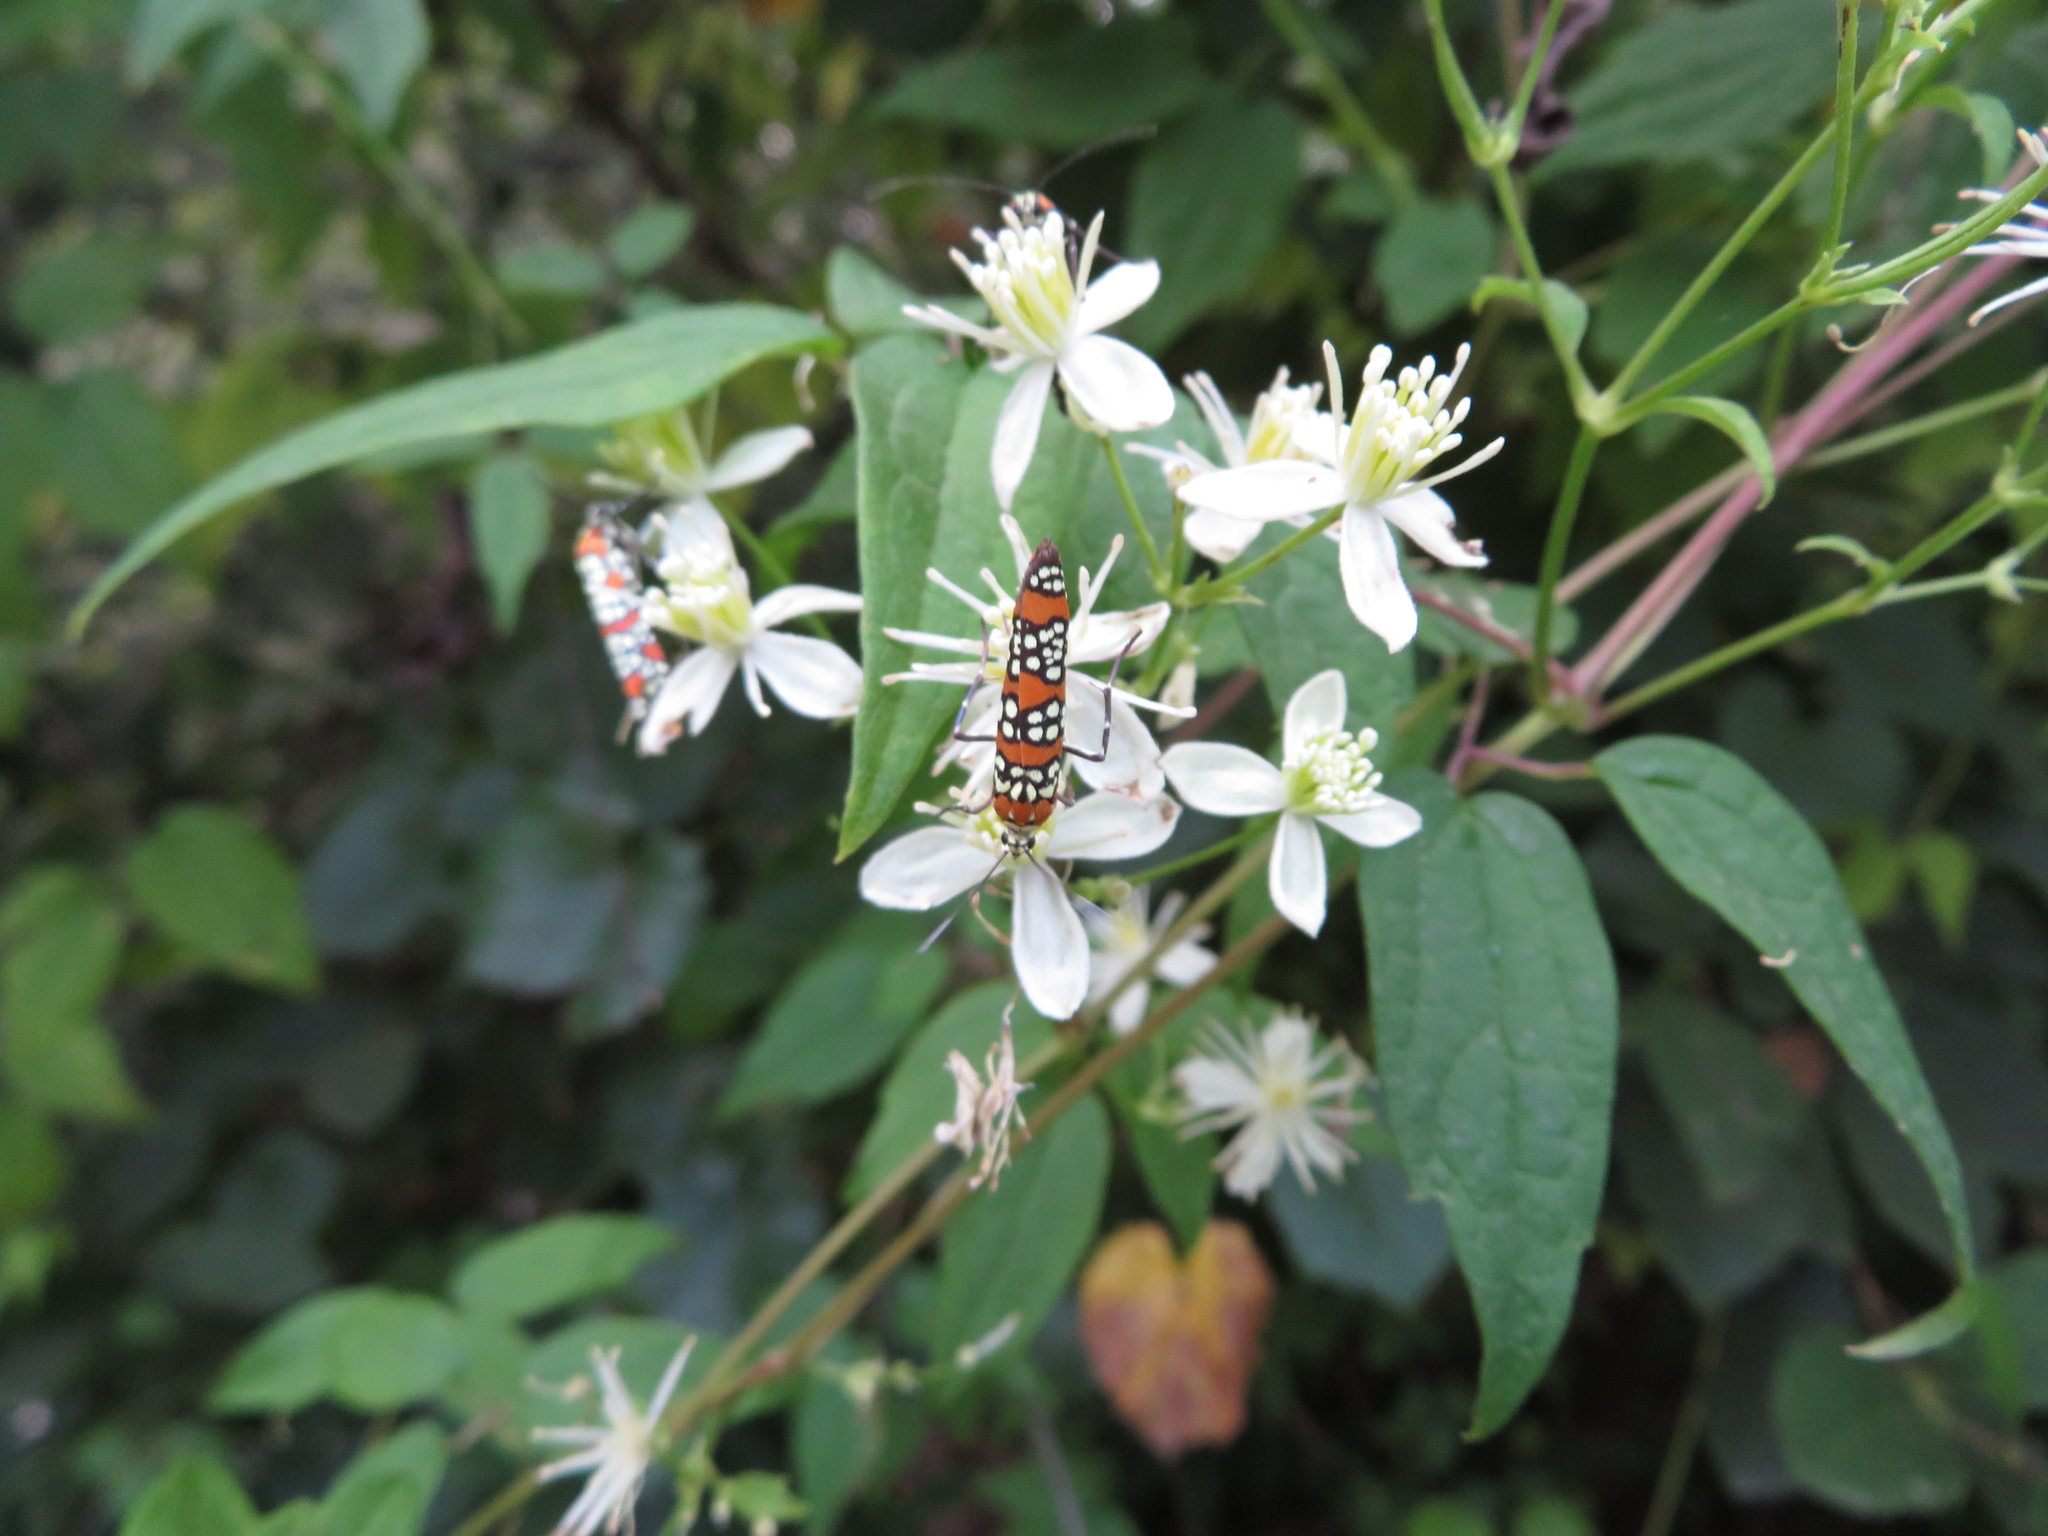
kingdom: Animalia
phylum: Arthropoda
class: Insecta
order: Lepidoptera
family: Attevidae
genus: Atteva
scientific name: Atteva punctella
